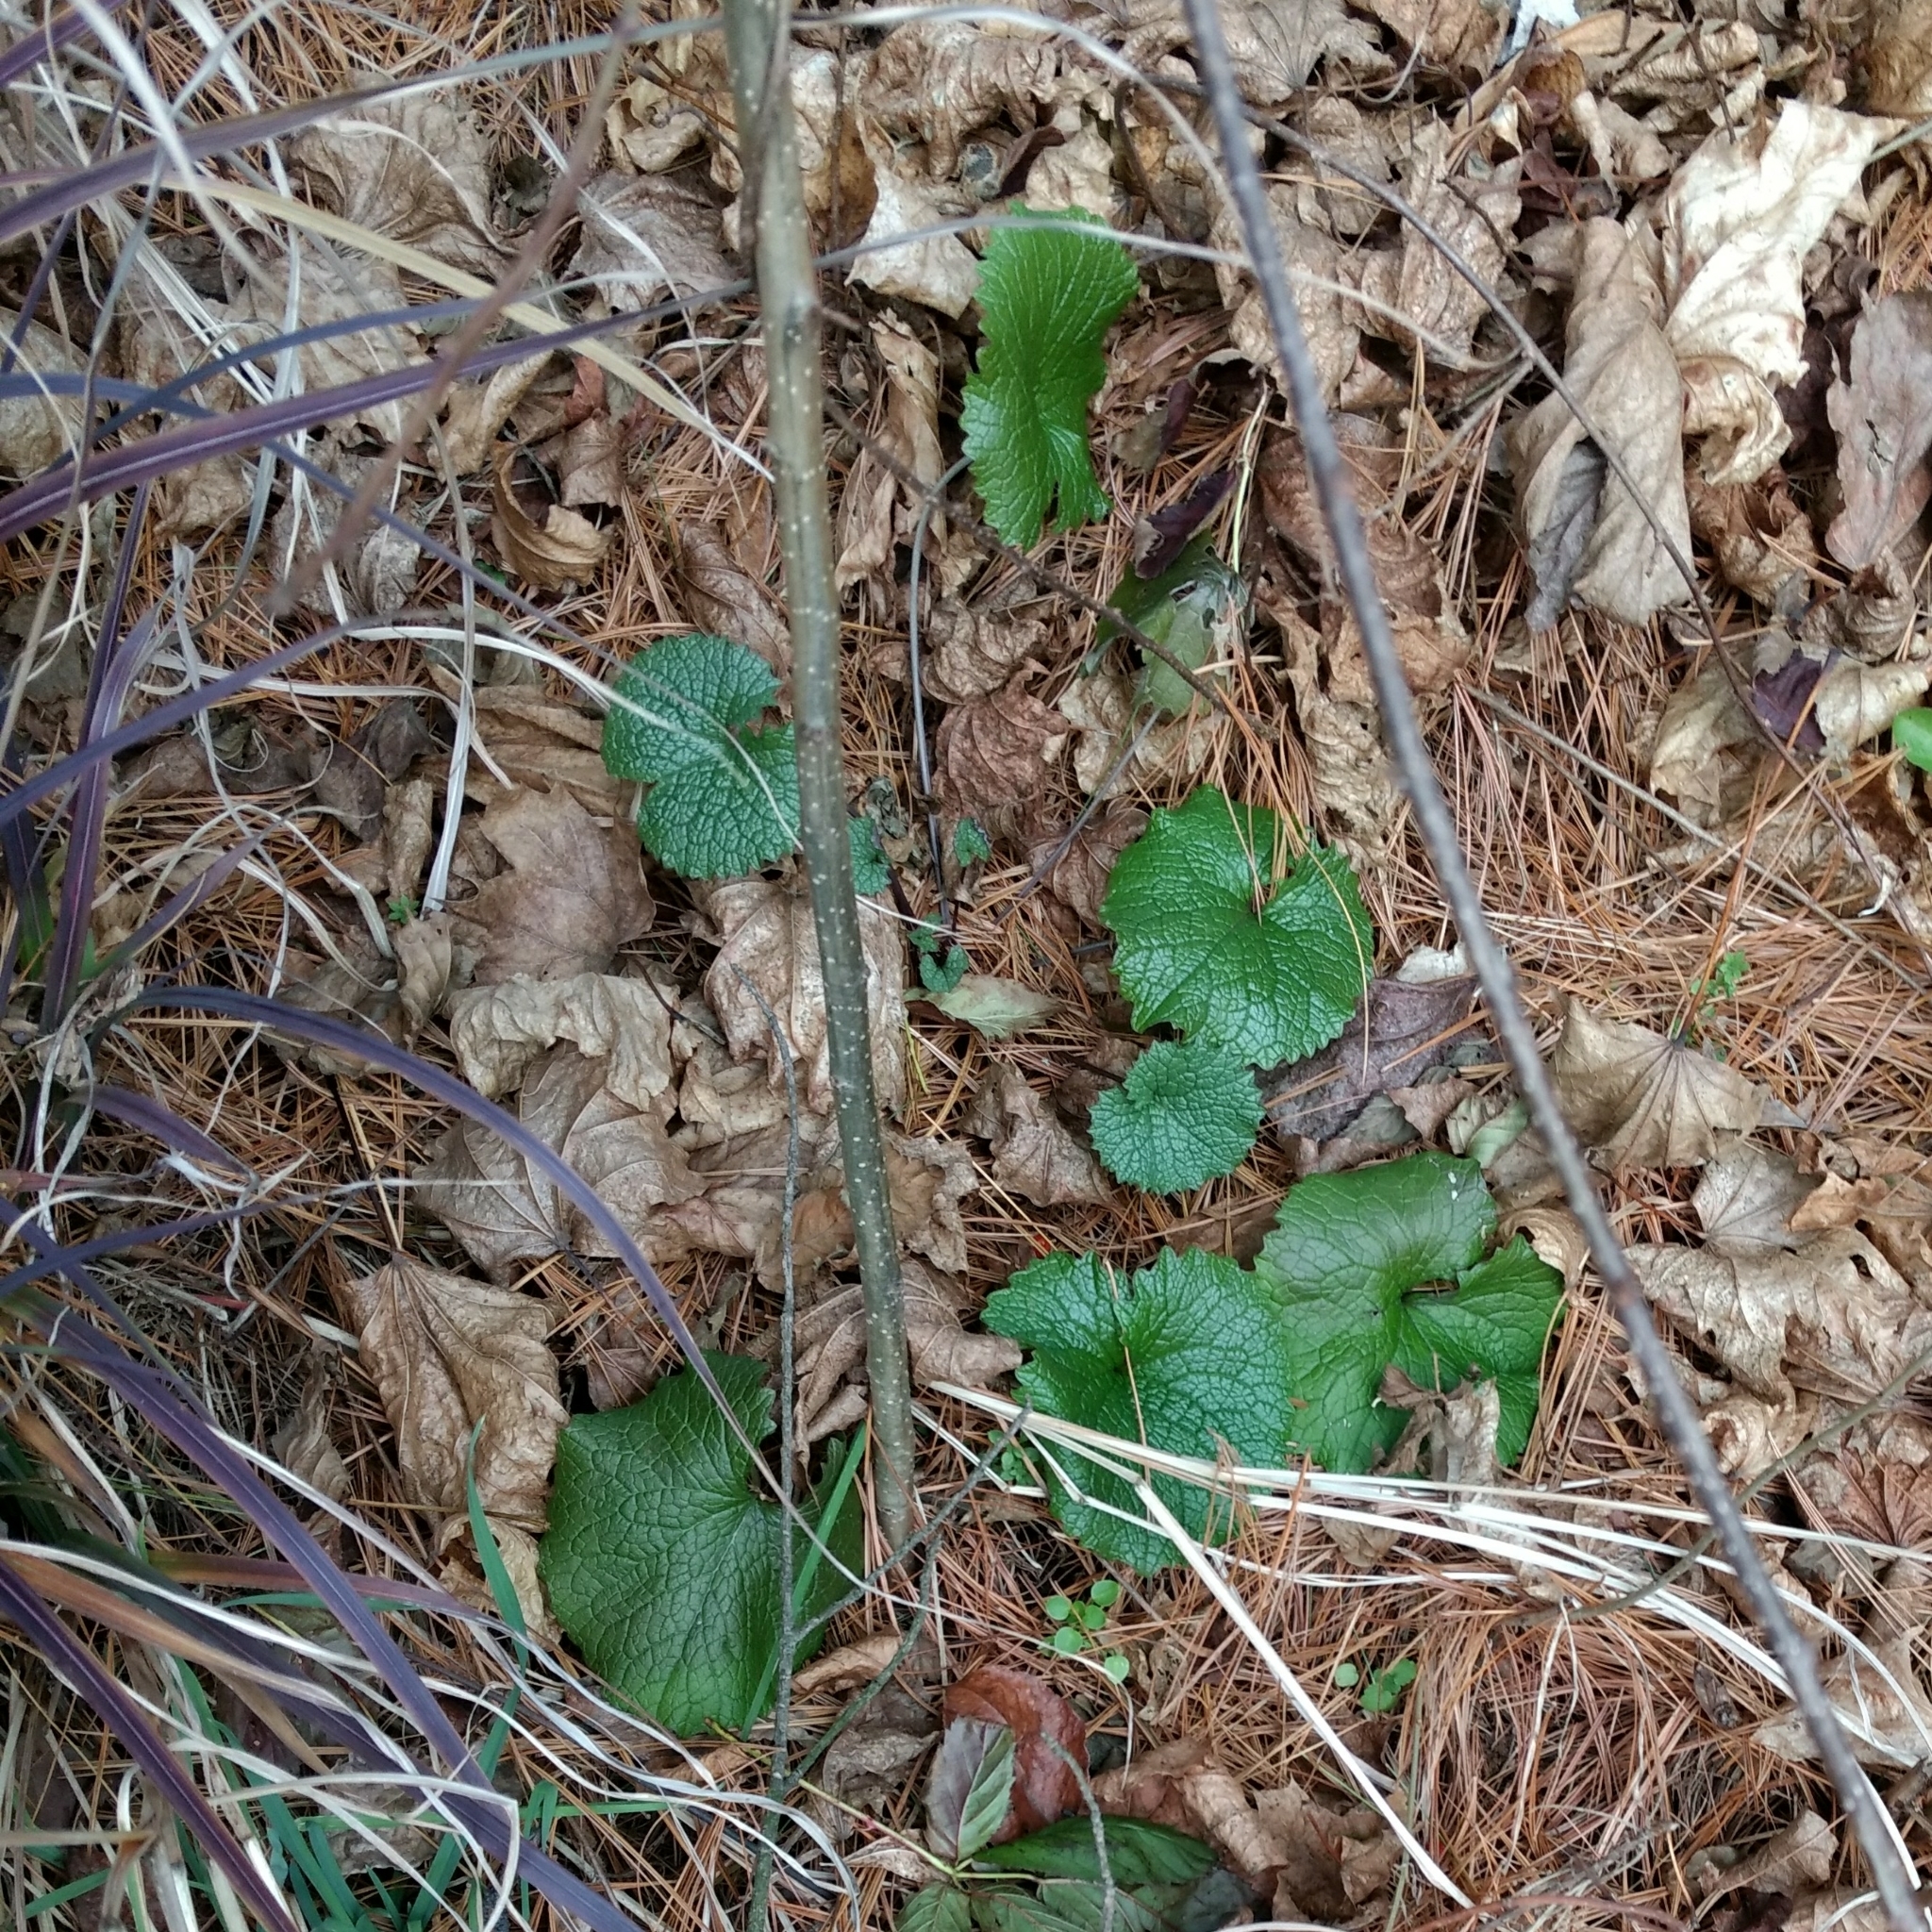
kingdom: Plantae
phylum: Tracheophyta
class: Magnoliopsida
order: Brassicales
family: Brassicaceae
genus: Alliaria
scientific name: Alliaria petiolata
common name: Garlic mustard
